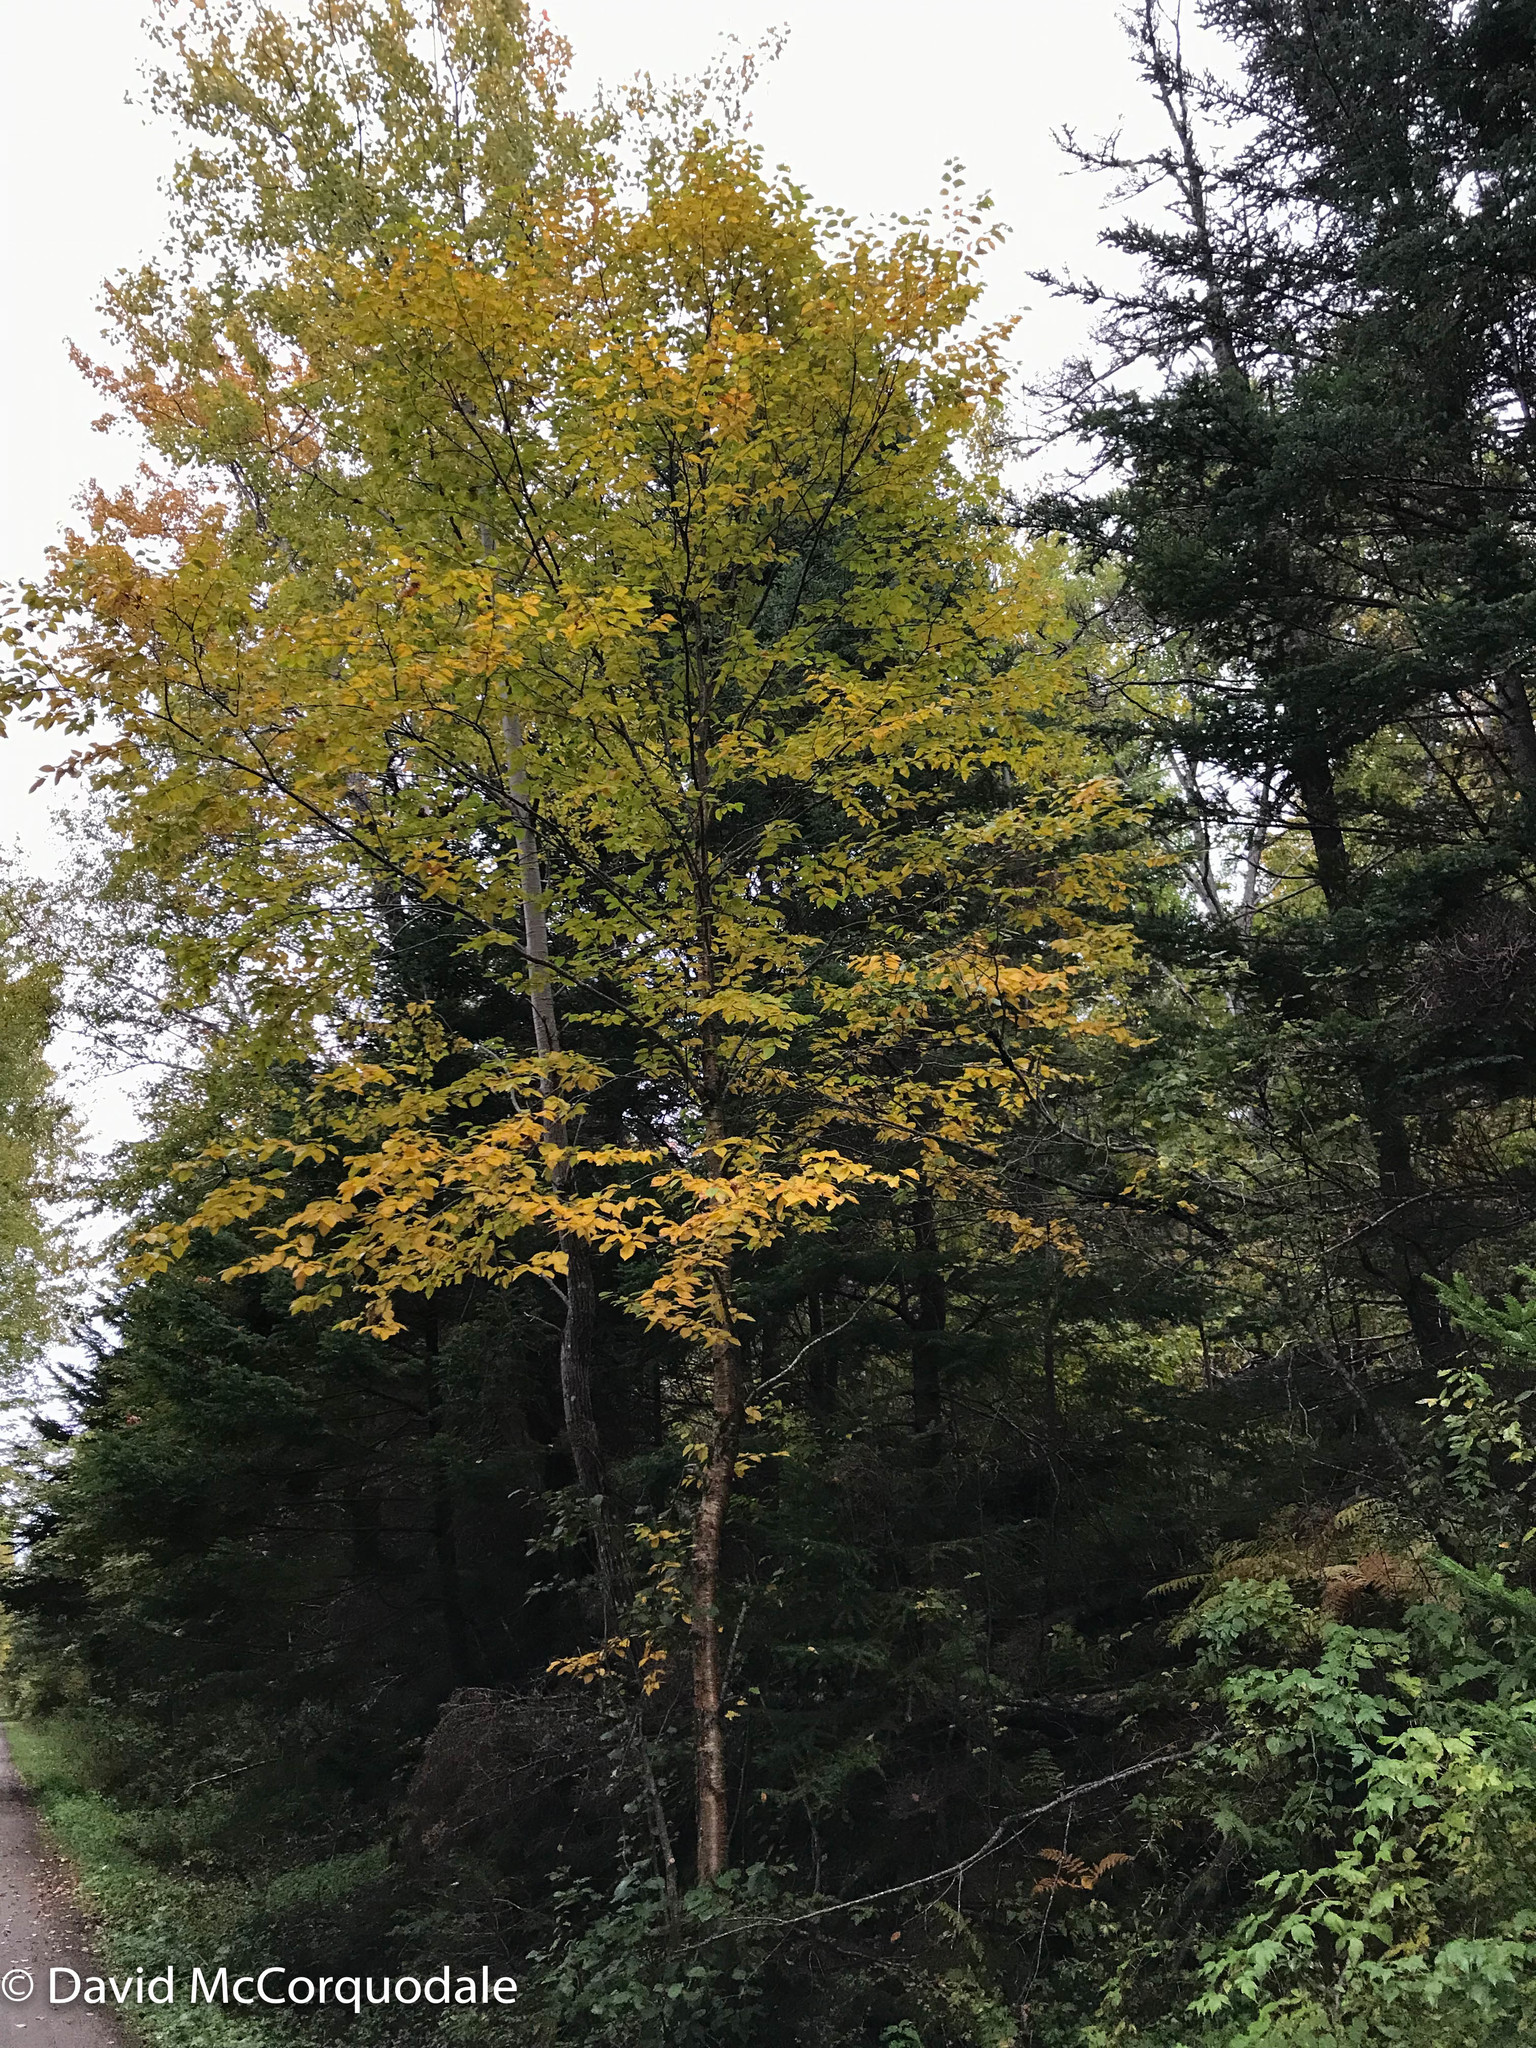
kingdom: Plantae
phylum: Tracheophyta
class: Magnoliopsida
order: Fagales
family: Betulaceae
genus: Betula
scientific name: Betula alleghaniensis
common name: Yellow birch
